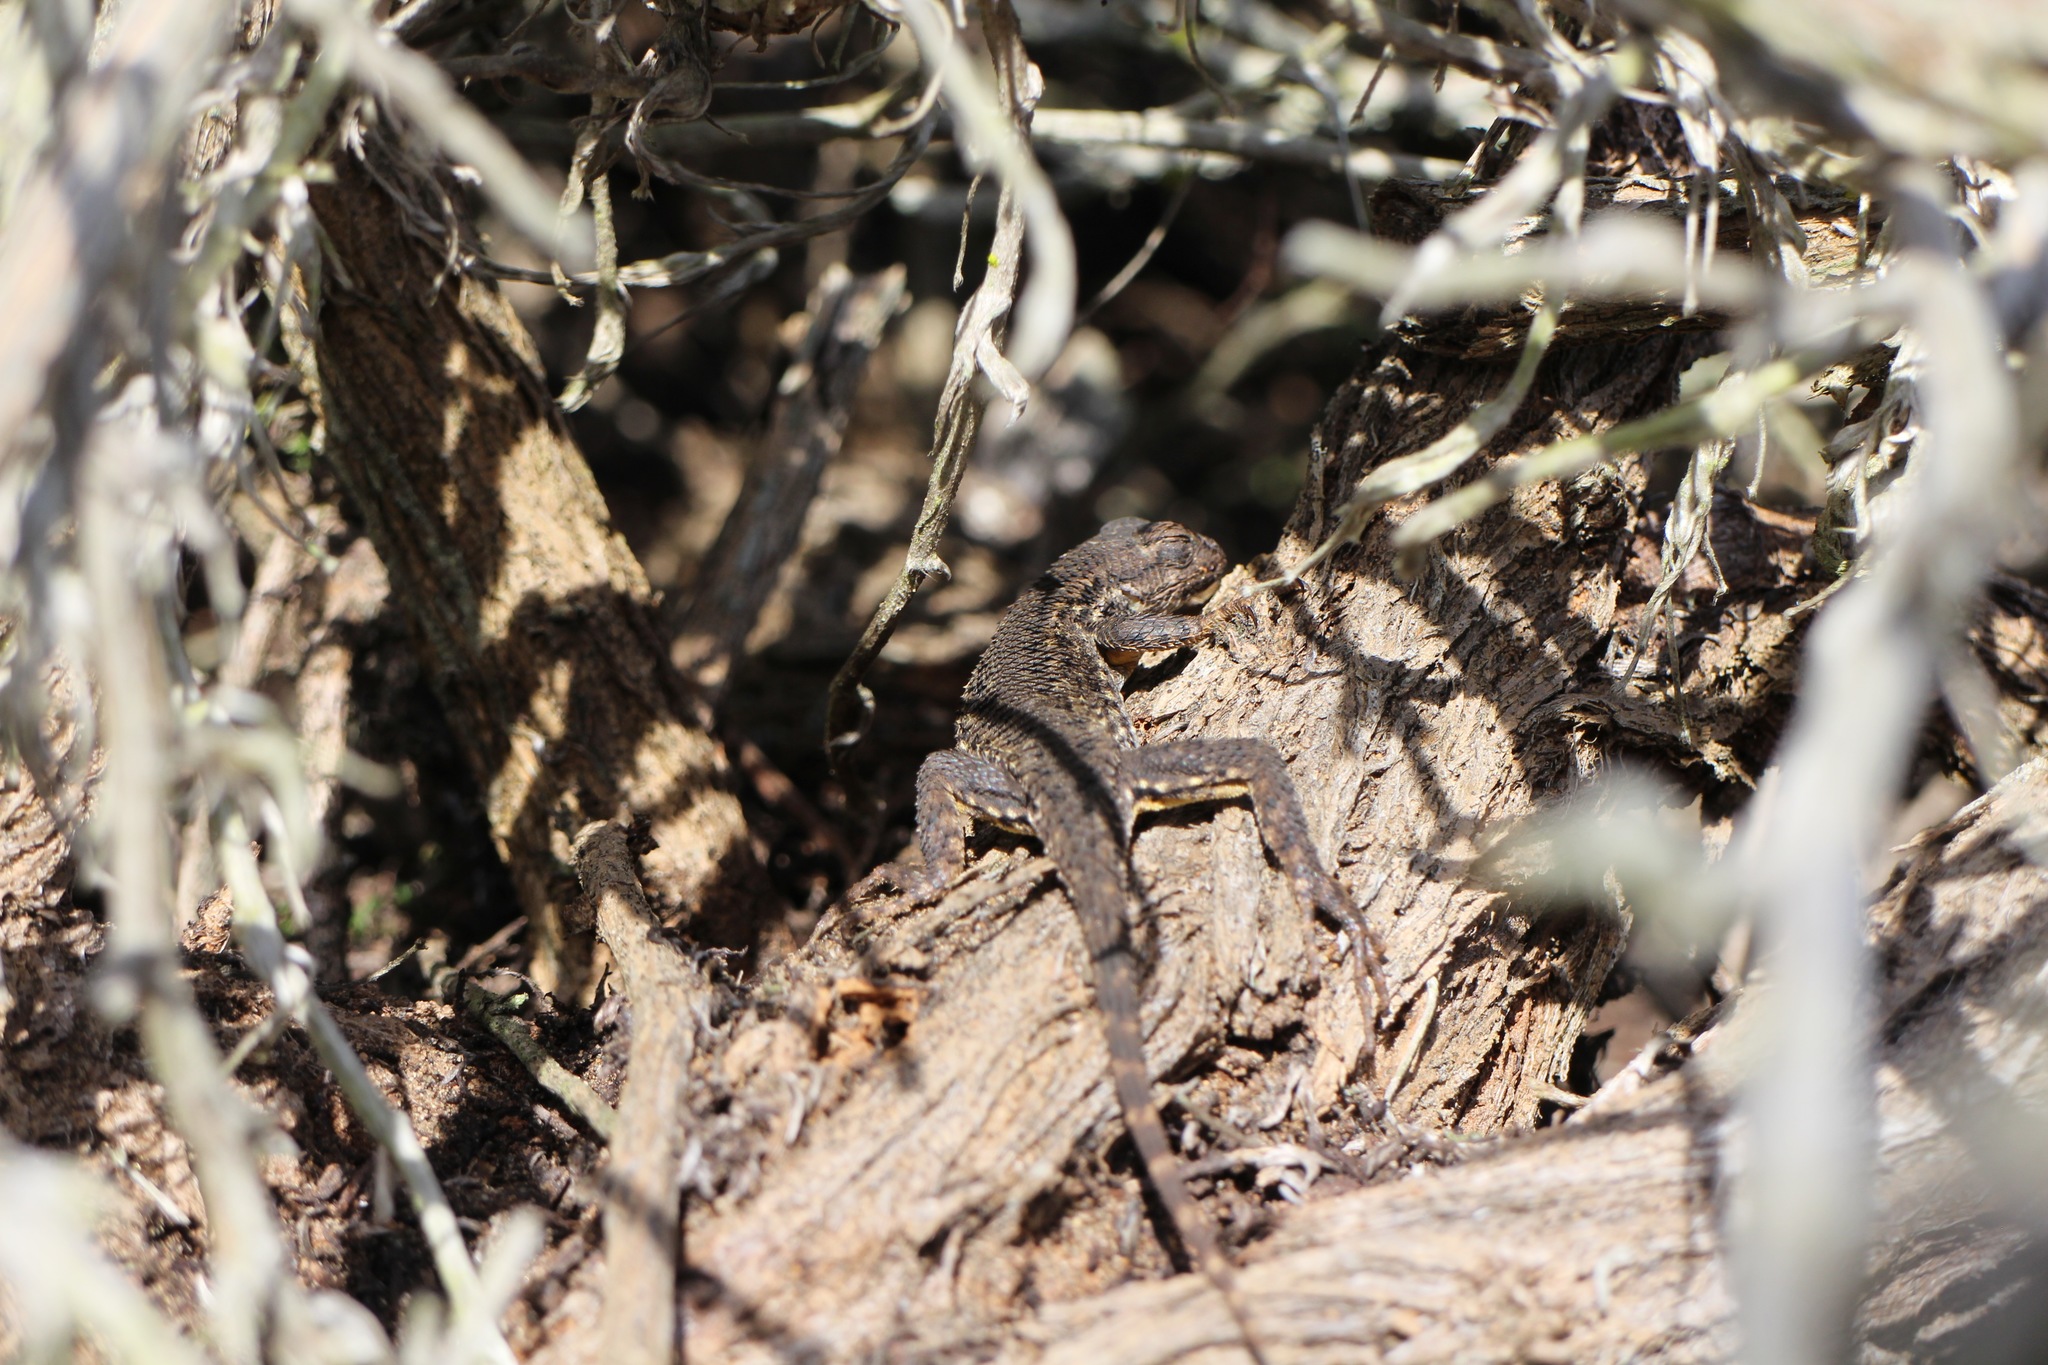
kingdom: Animalia
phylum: Chordata
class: Squamata
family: Phrynosomatidae
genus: Sceloporus
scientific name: Sceloporus occidentalis
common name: Western fence lizard
